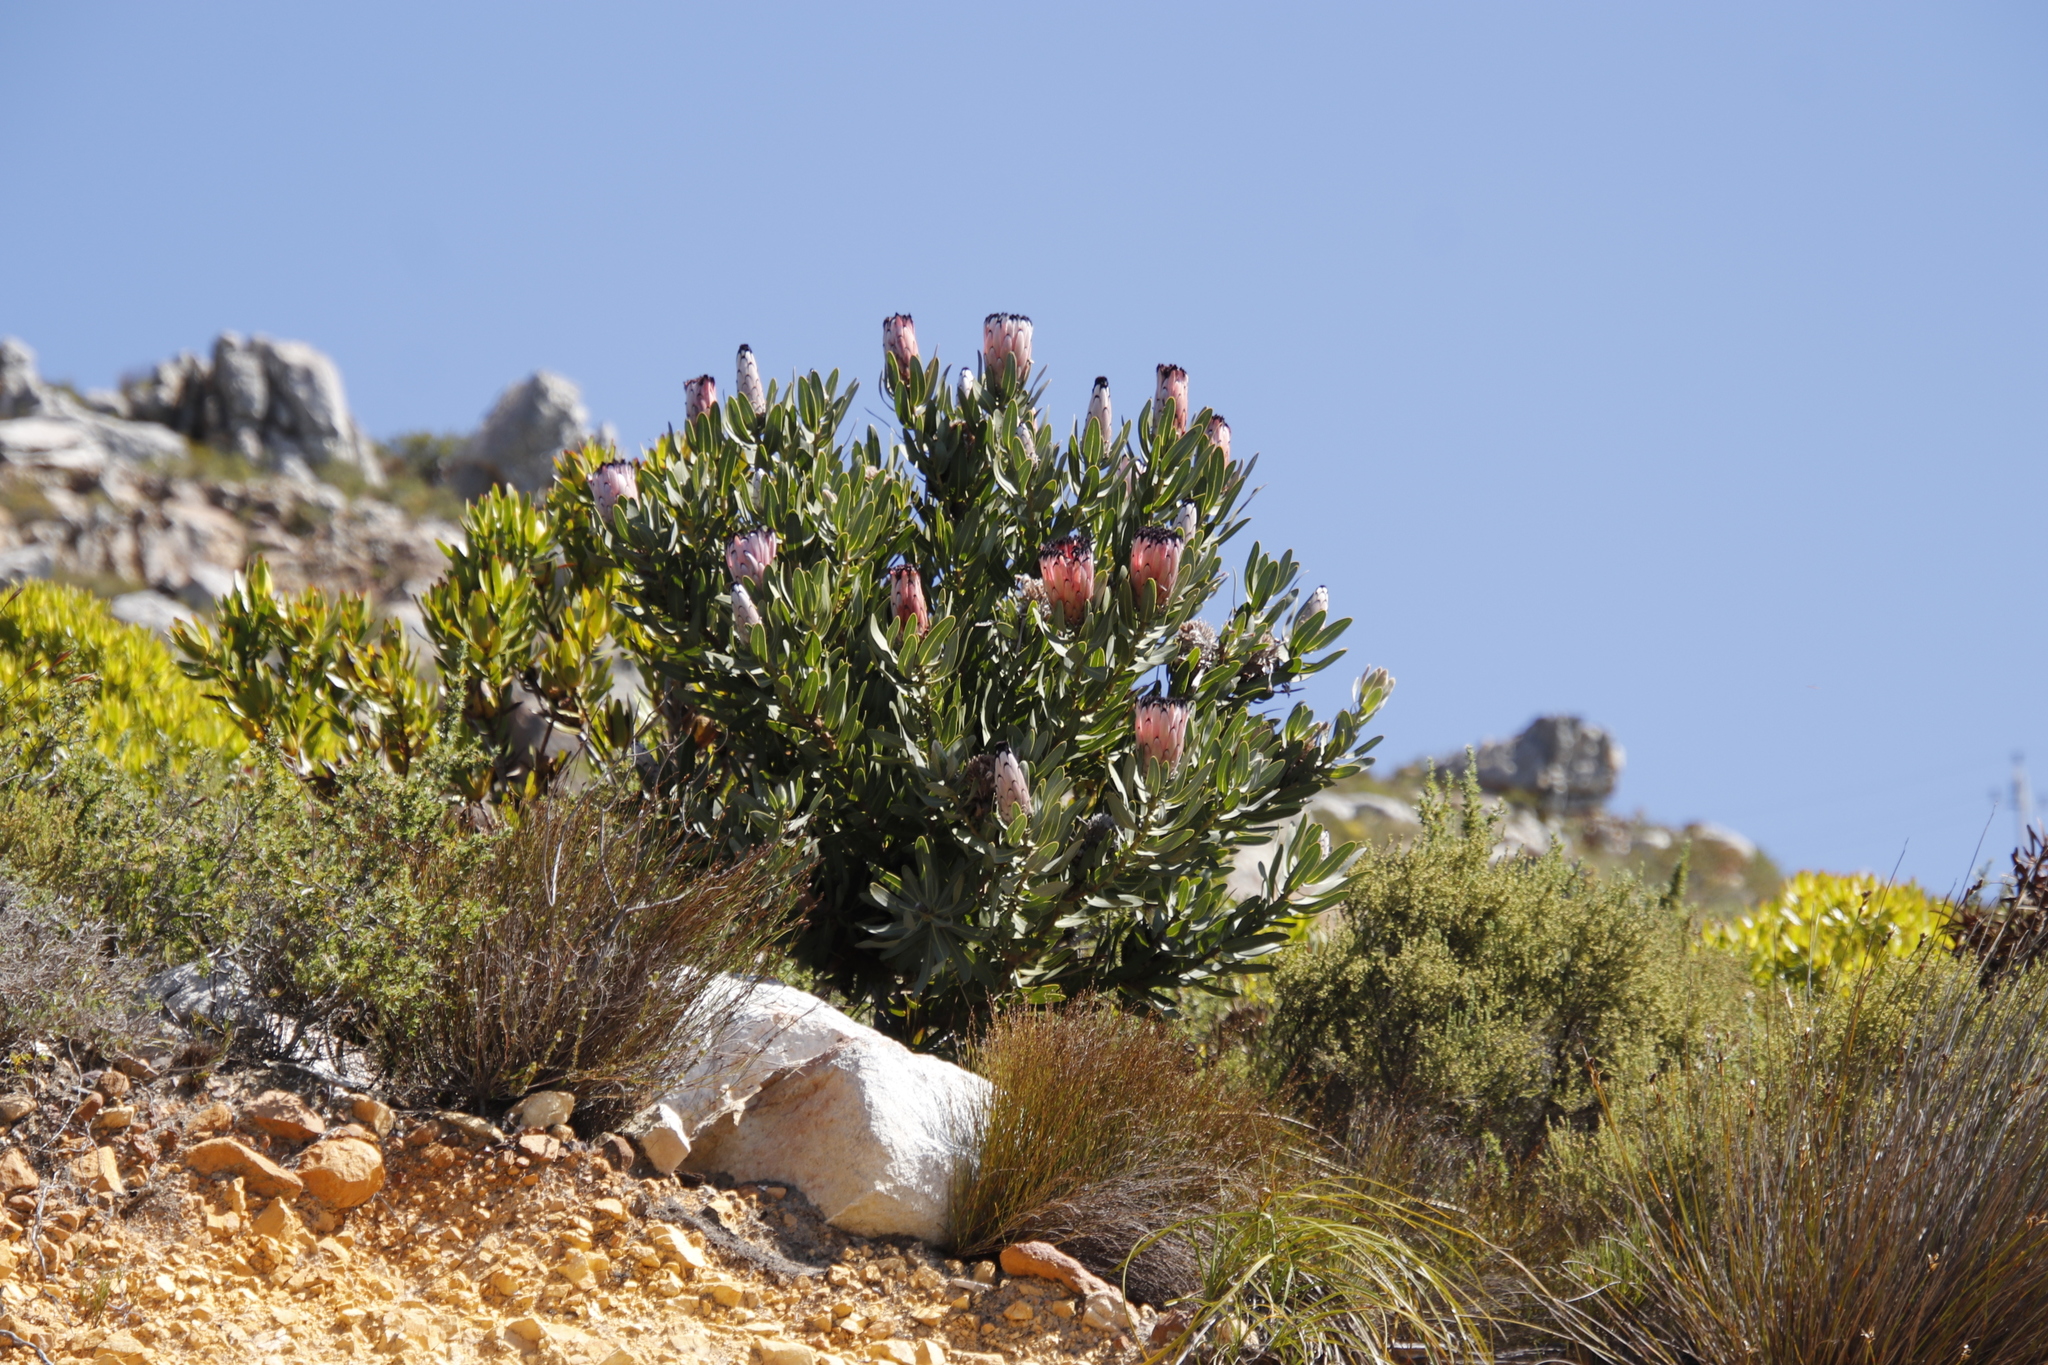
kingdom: Plantae
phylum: Tracheophyta
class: Magnoliopsida
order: Proteales
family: Proteaceae
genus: Protea
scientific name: Protea laurifolia
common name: Grey-leaf sugarbsh
